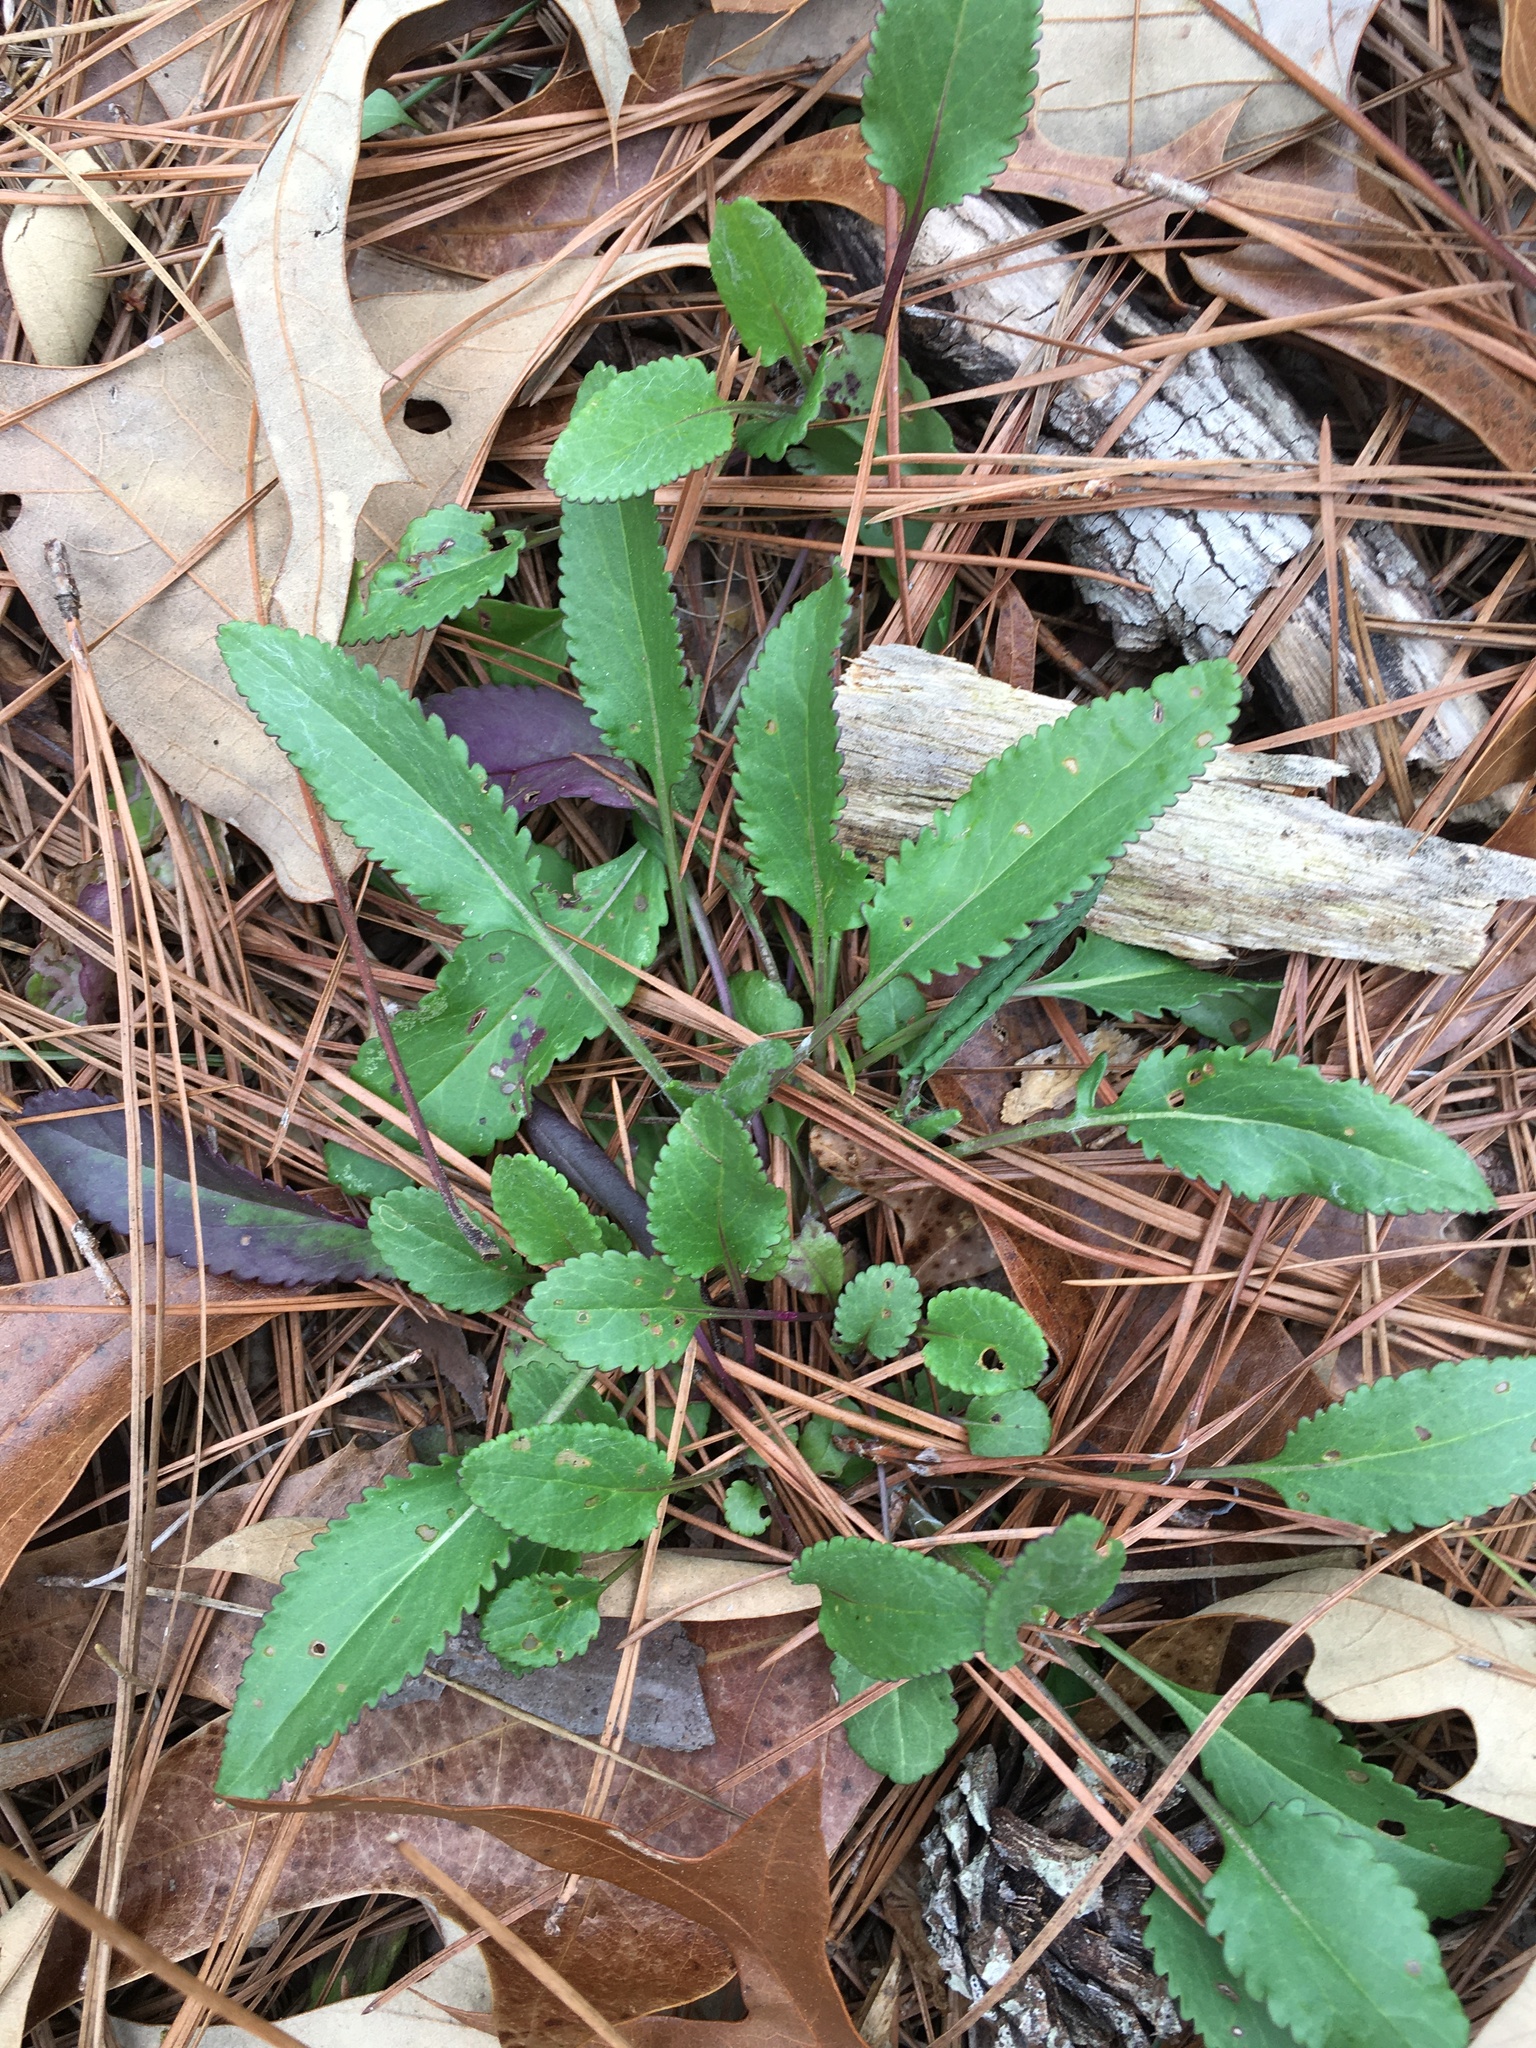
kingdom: Plantae
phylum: Tracheophyta
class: Magnoliopsida
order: Asterales
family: Asteraceae
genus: Packera
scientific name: Packera anonyma
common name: Small ragwort
